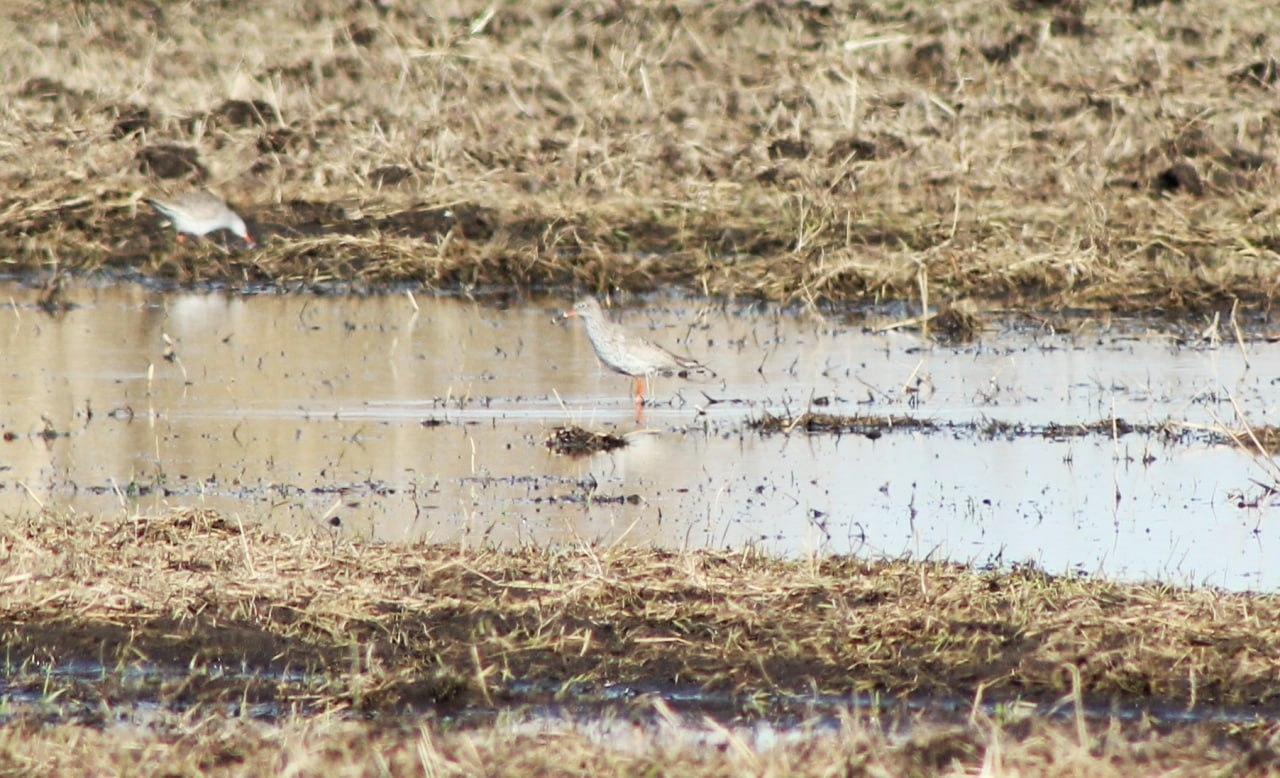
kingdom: Animalia
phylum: Chordata
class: Aves
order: Charadriiformes
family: Scolopacidae
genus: Tringa
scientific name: Tringa totanus
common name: Common redshank
